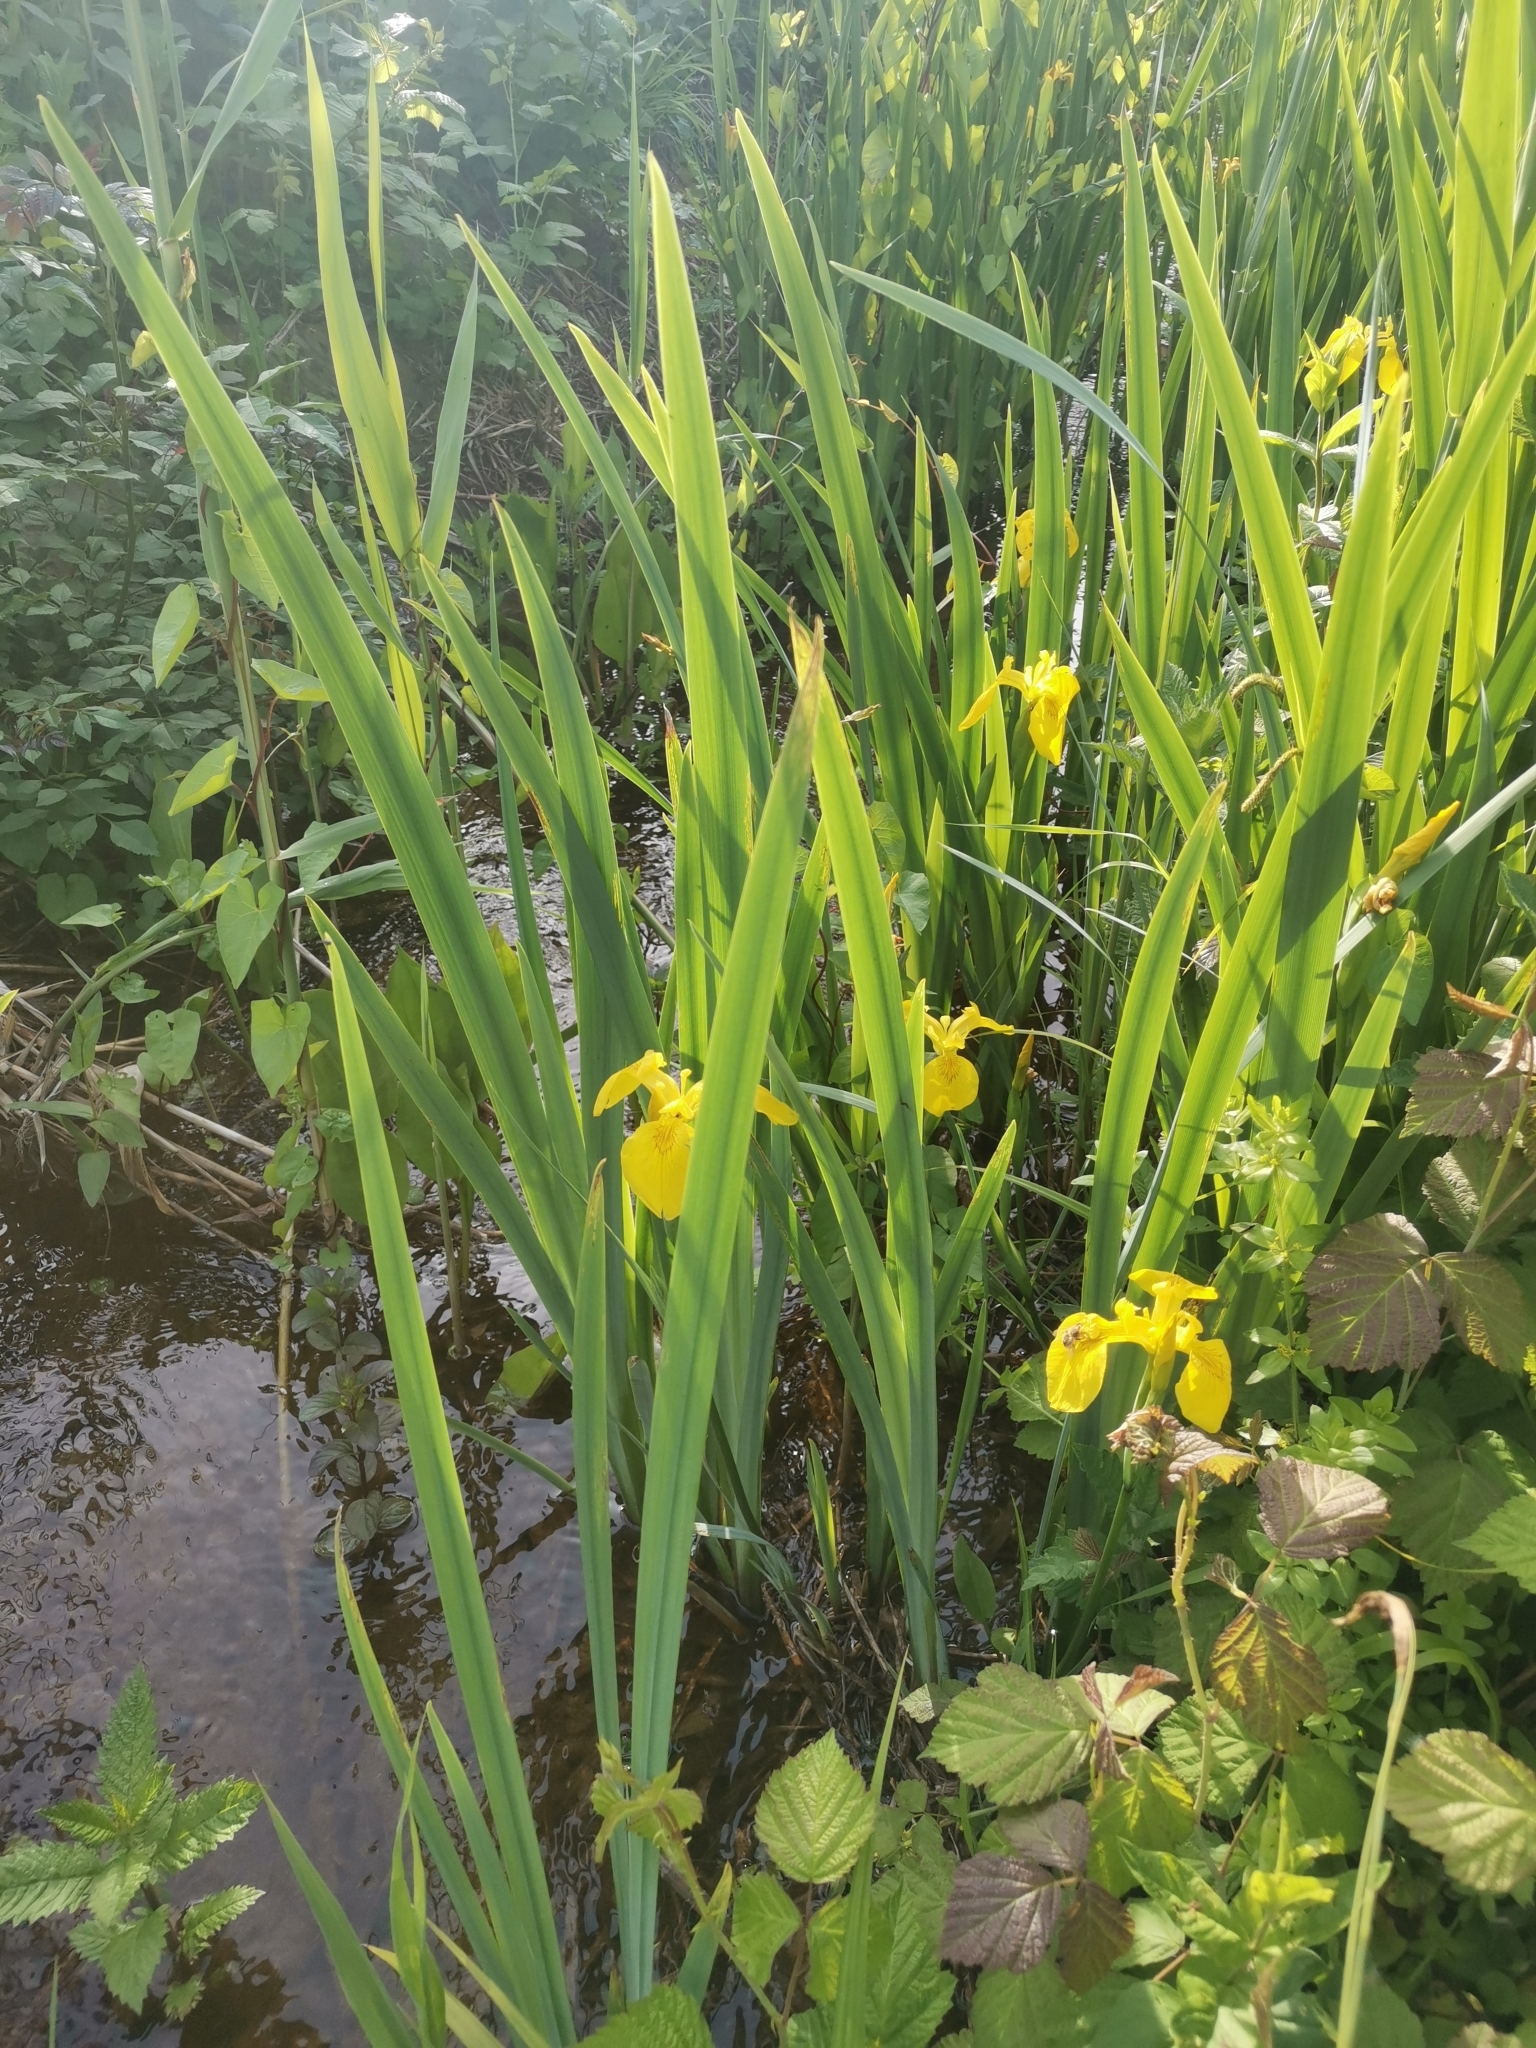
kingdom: Plantae
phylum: Tracheophyta
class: Liliopsida
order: Asparagales
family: Iridaceae
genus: Iris
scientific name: Iris pseudacorus
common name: Yellow flag
